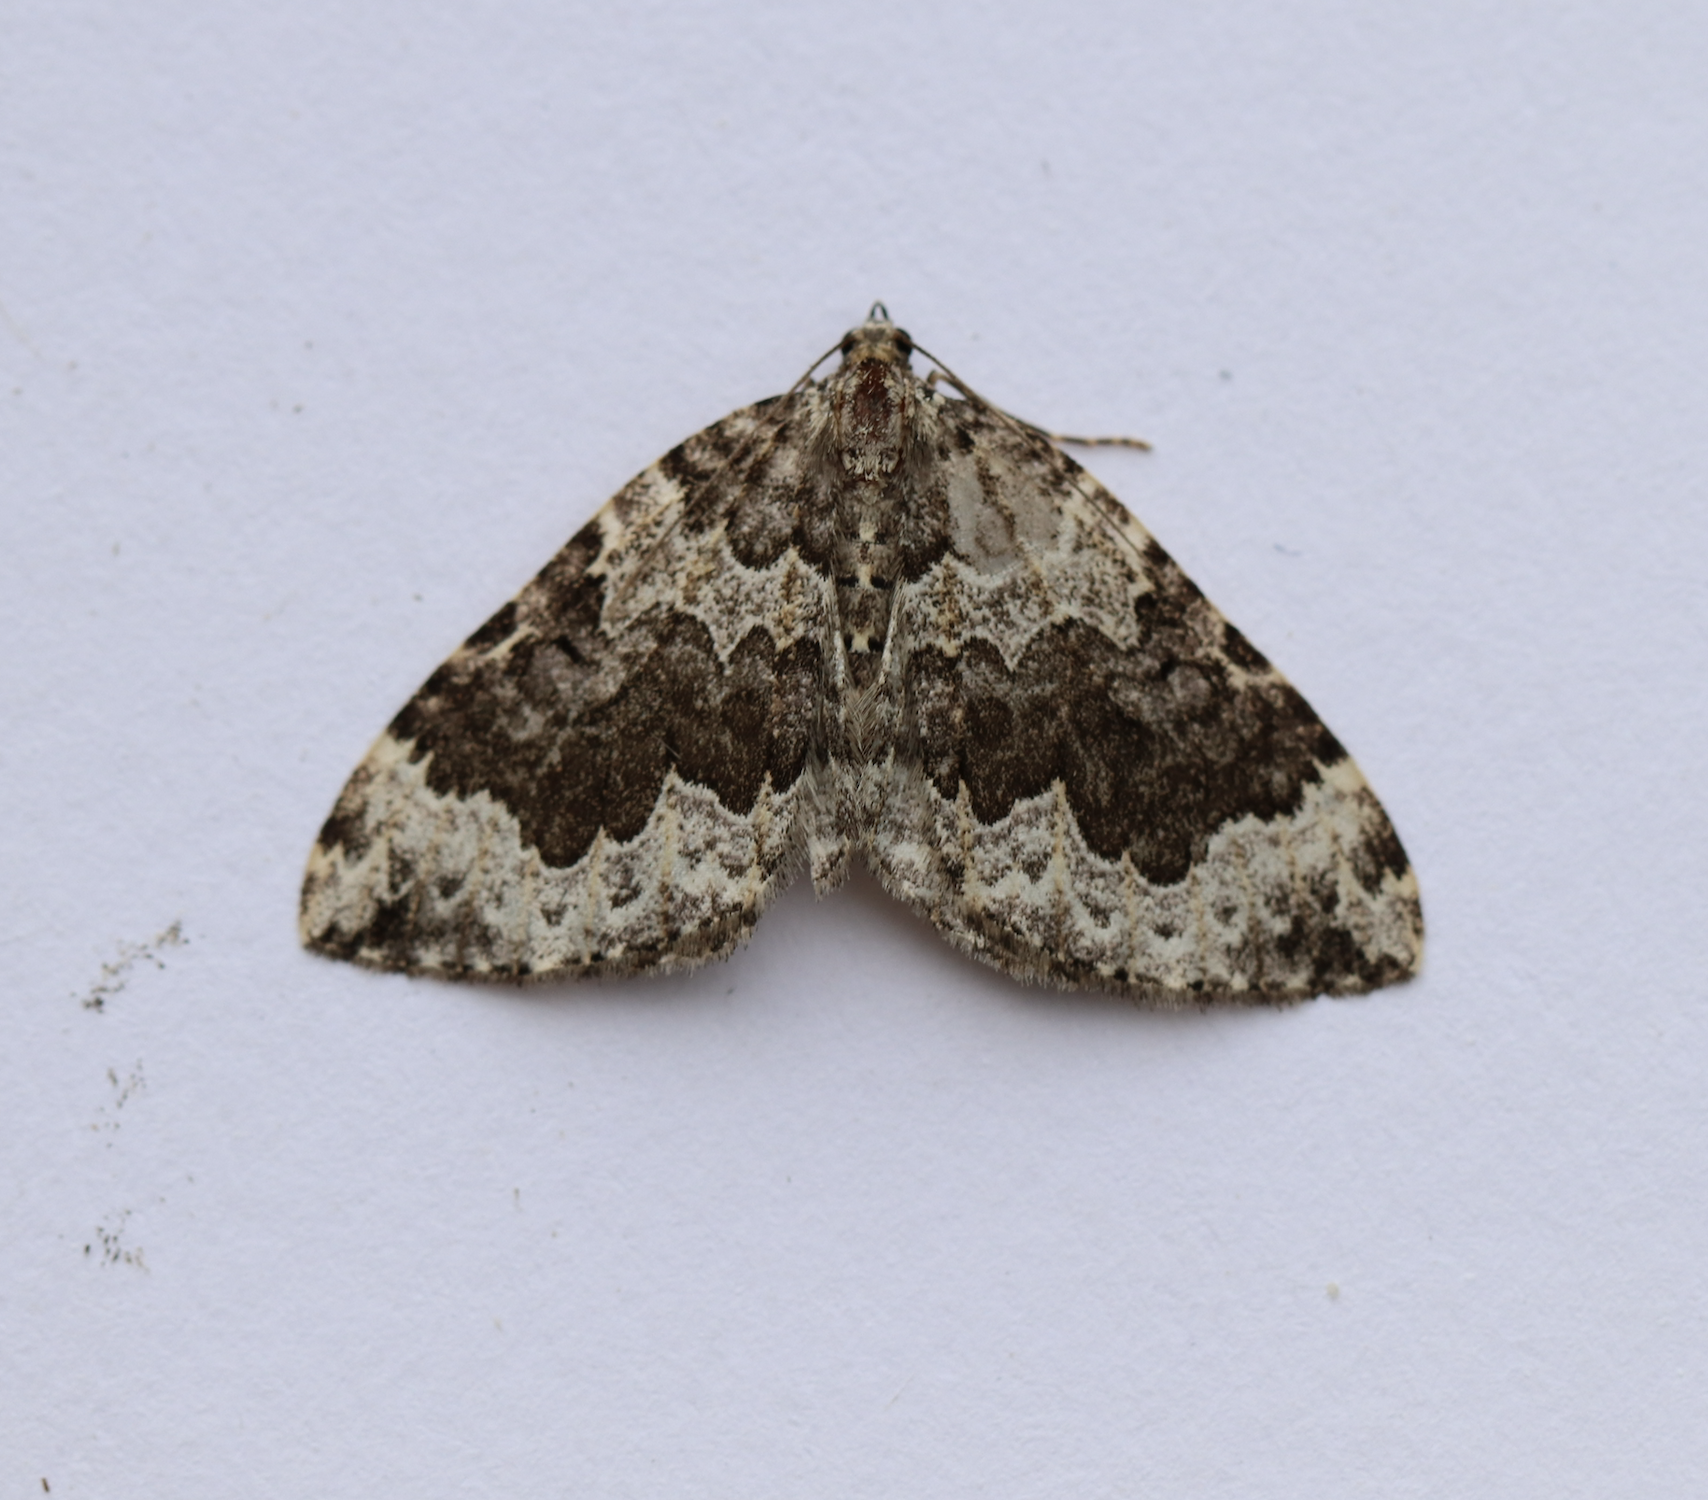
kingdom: Animalia
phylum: Arthropoda
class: Insecta
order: Lepidoptera
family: Geometridae
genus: Eustroma
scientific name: Eustroma semiatrata
